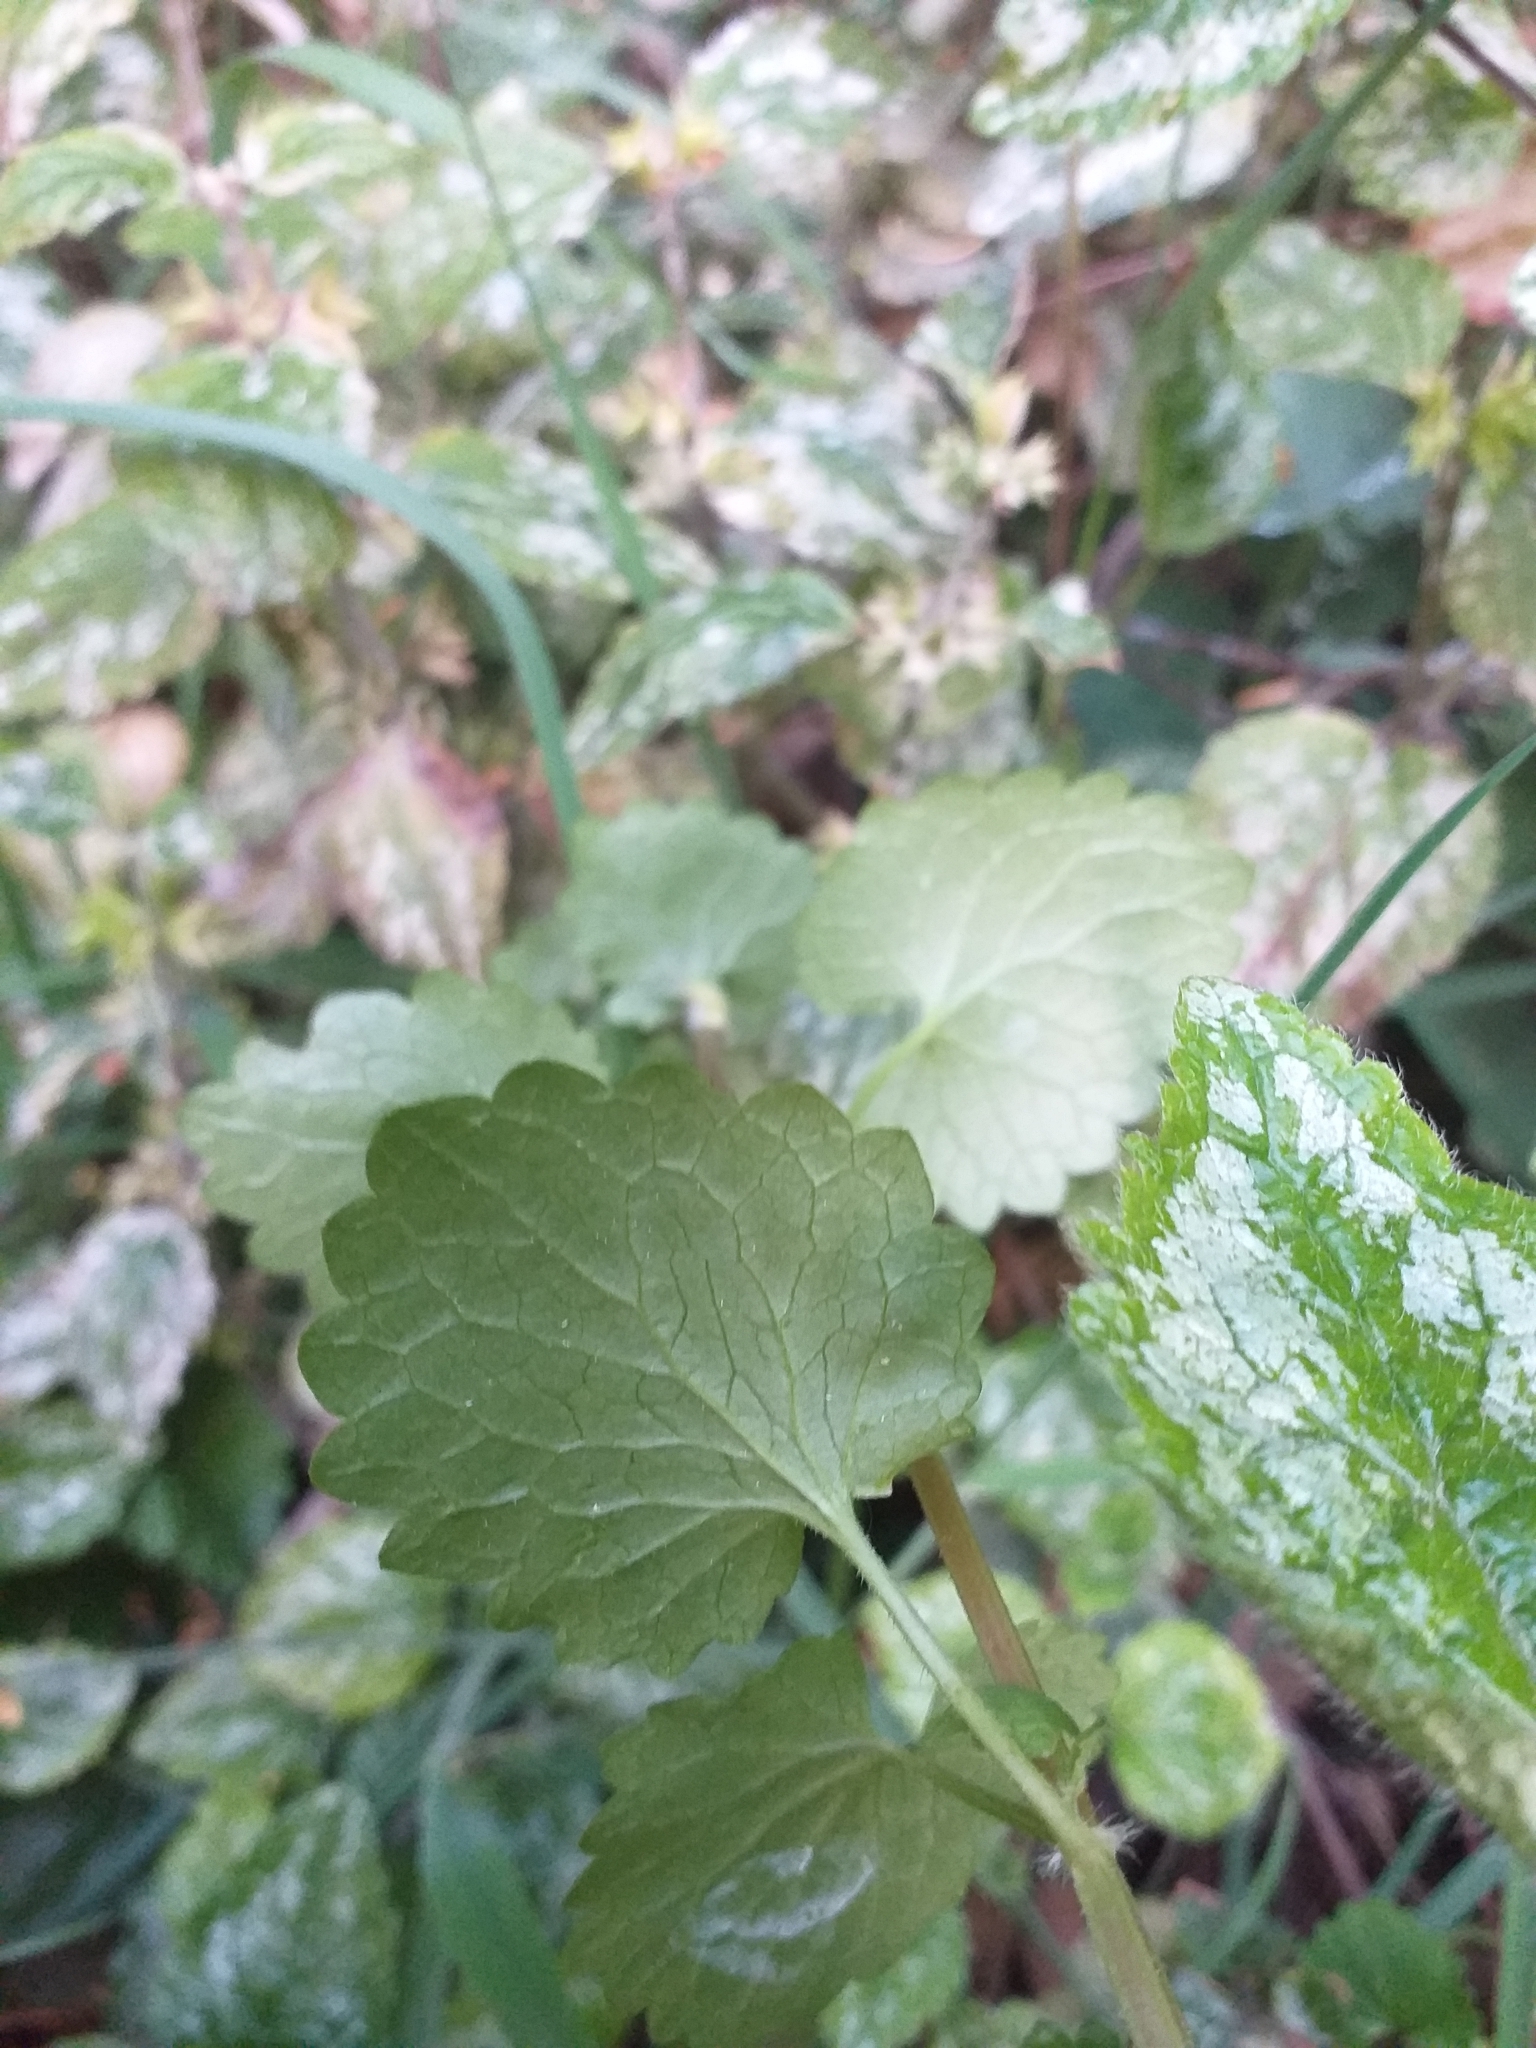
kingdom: Plantae
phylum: Tracheophyta
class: Magnoliopsida
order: Lamiales
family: Lamiaceae
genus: Glechoma
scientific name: Glechoma hederacea
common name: Ground ivy
